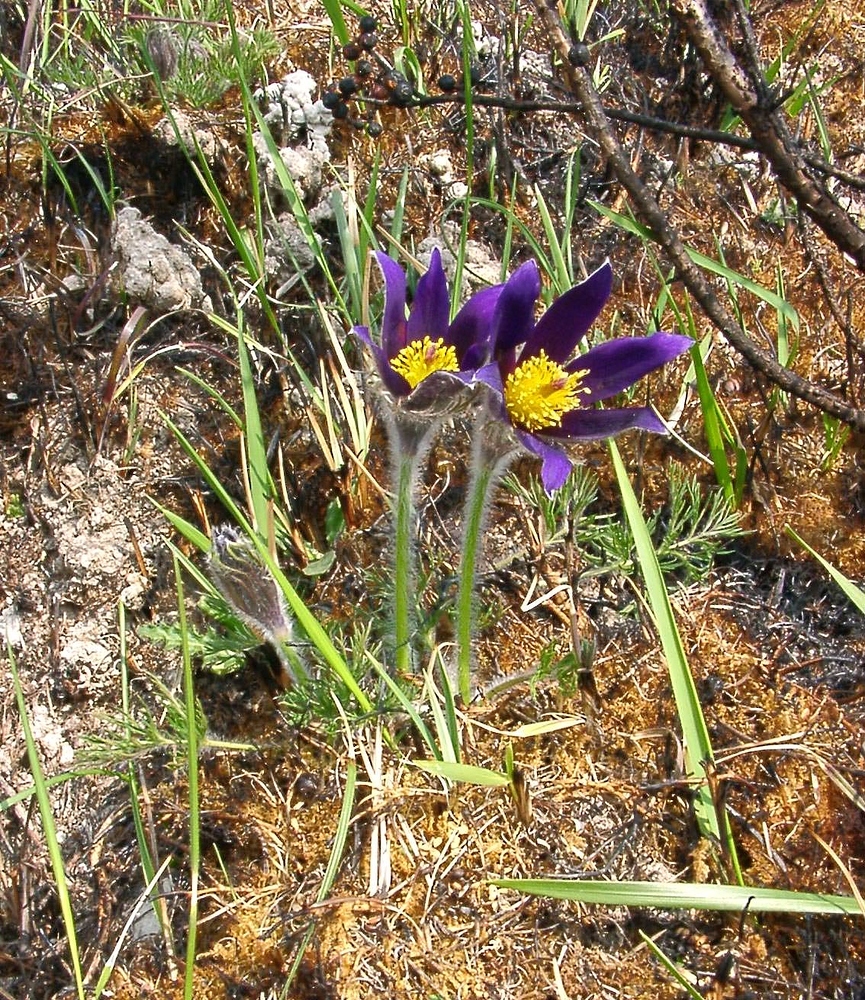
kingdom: Plantae
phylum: Tracheophyta
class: Magnoliopsida
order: Ranunculales
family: Ranunculaceae
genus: Pulsatilla
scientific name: Pulsatilla vulgaris
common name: Pasqueflower
